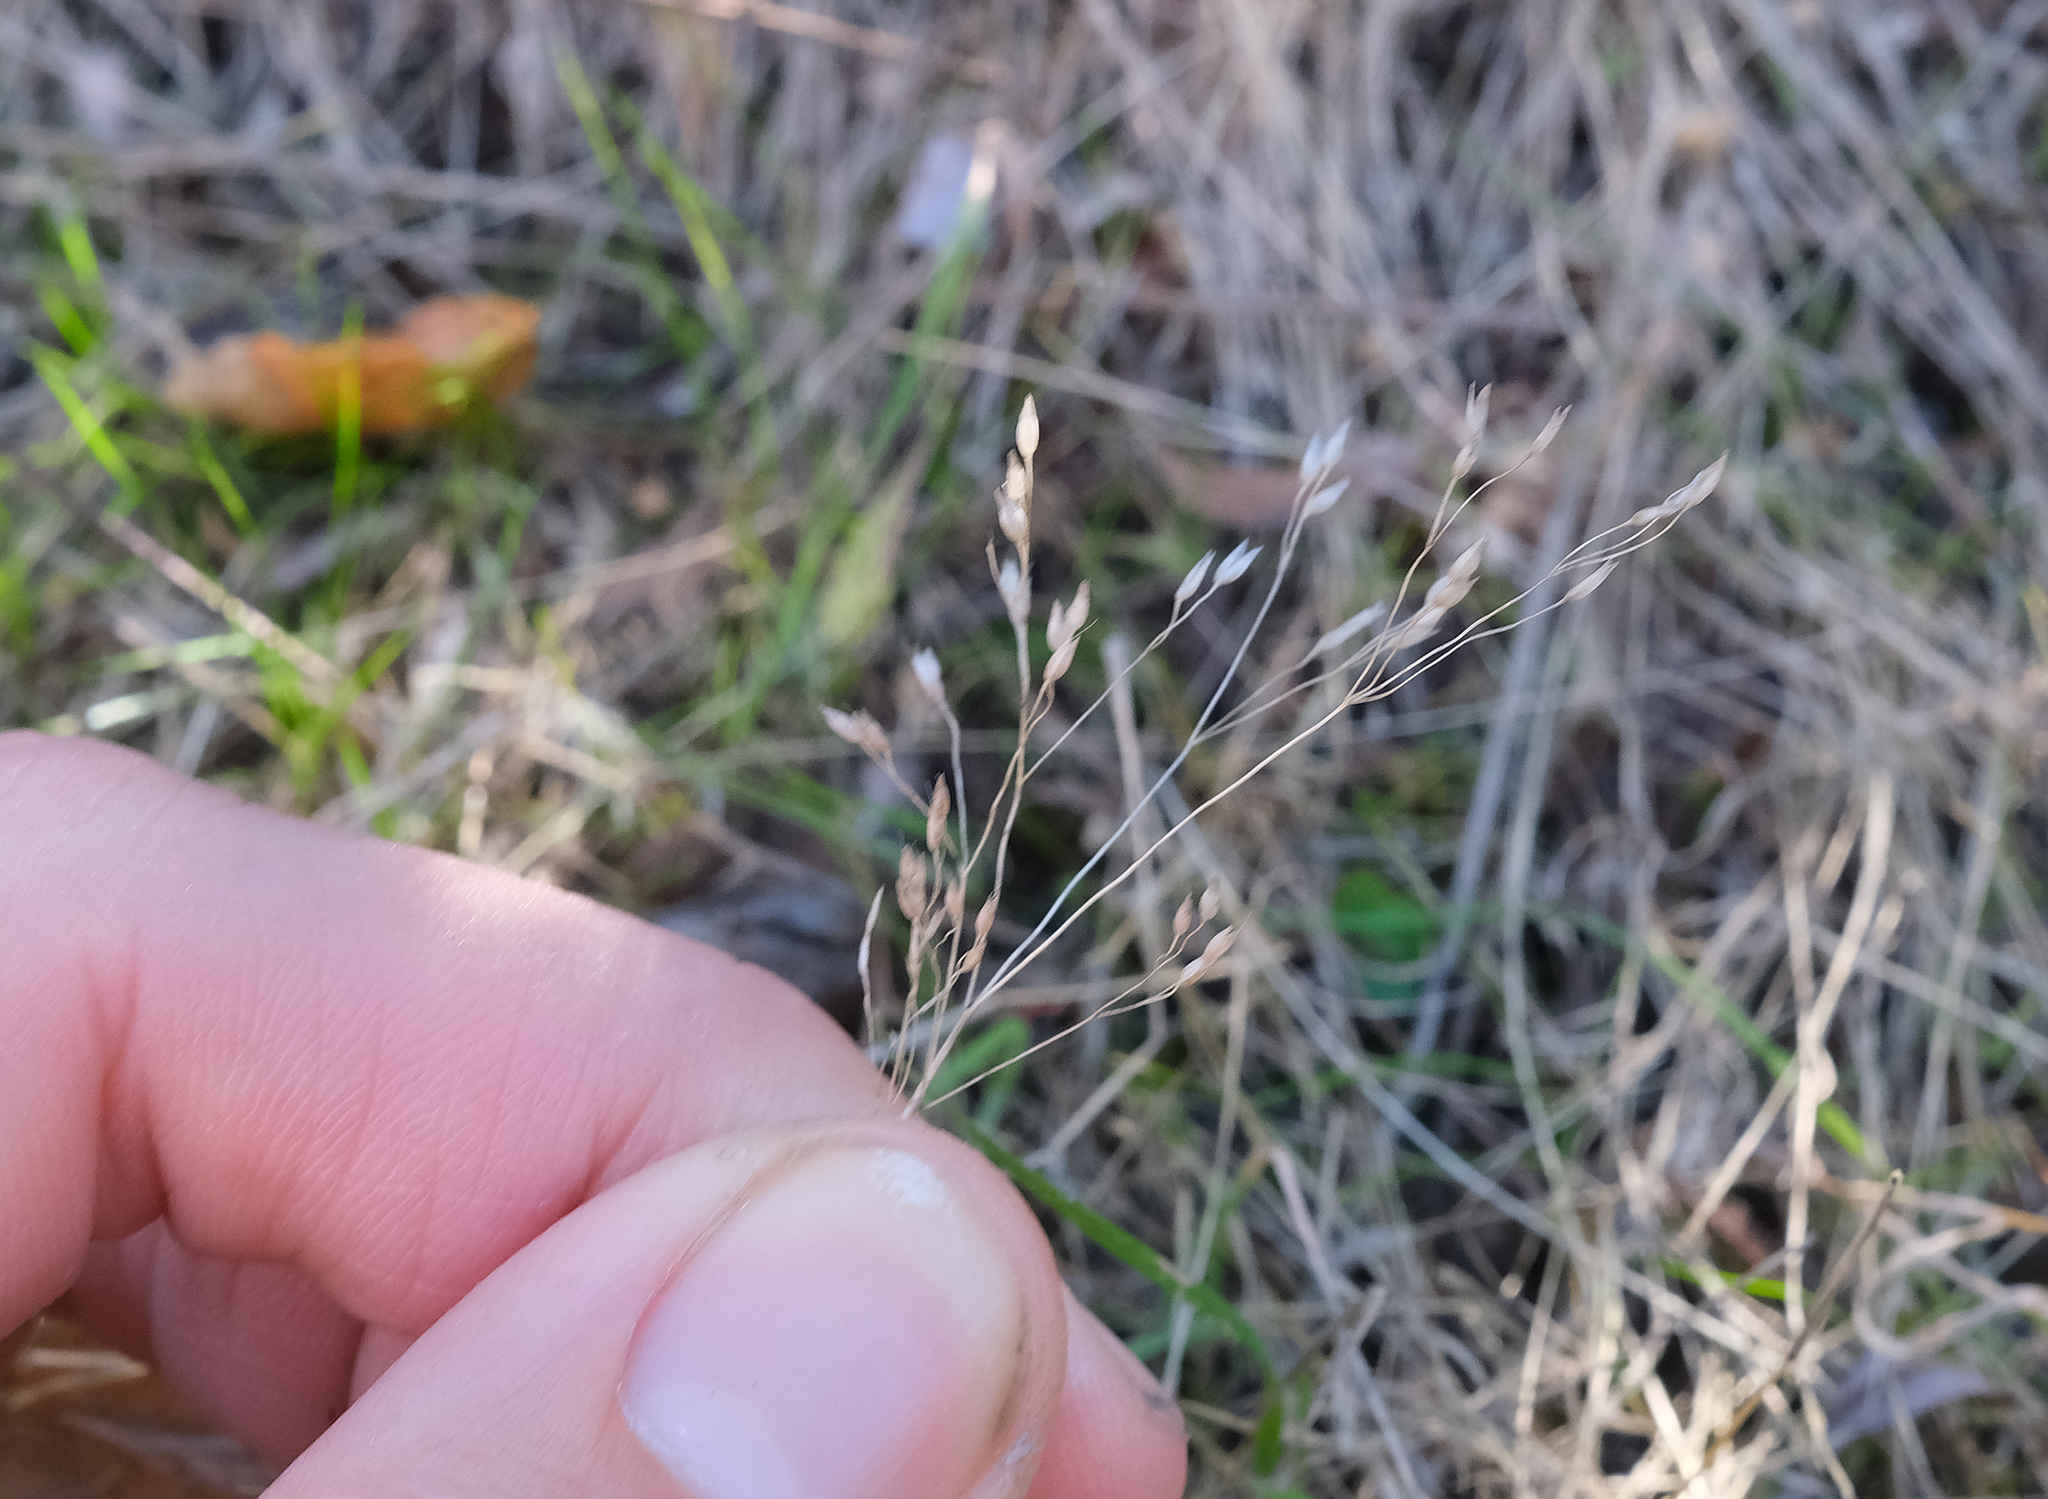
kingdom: Plantae
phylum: Tracheophyta
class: Liliopsida
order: Poales
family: Poaceae
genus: Aira
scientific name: Aira caryophyllea
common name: Silver hairgrass
